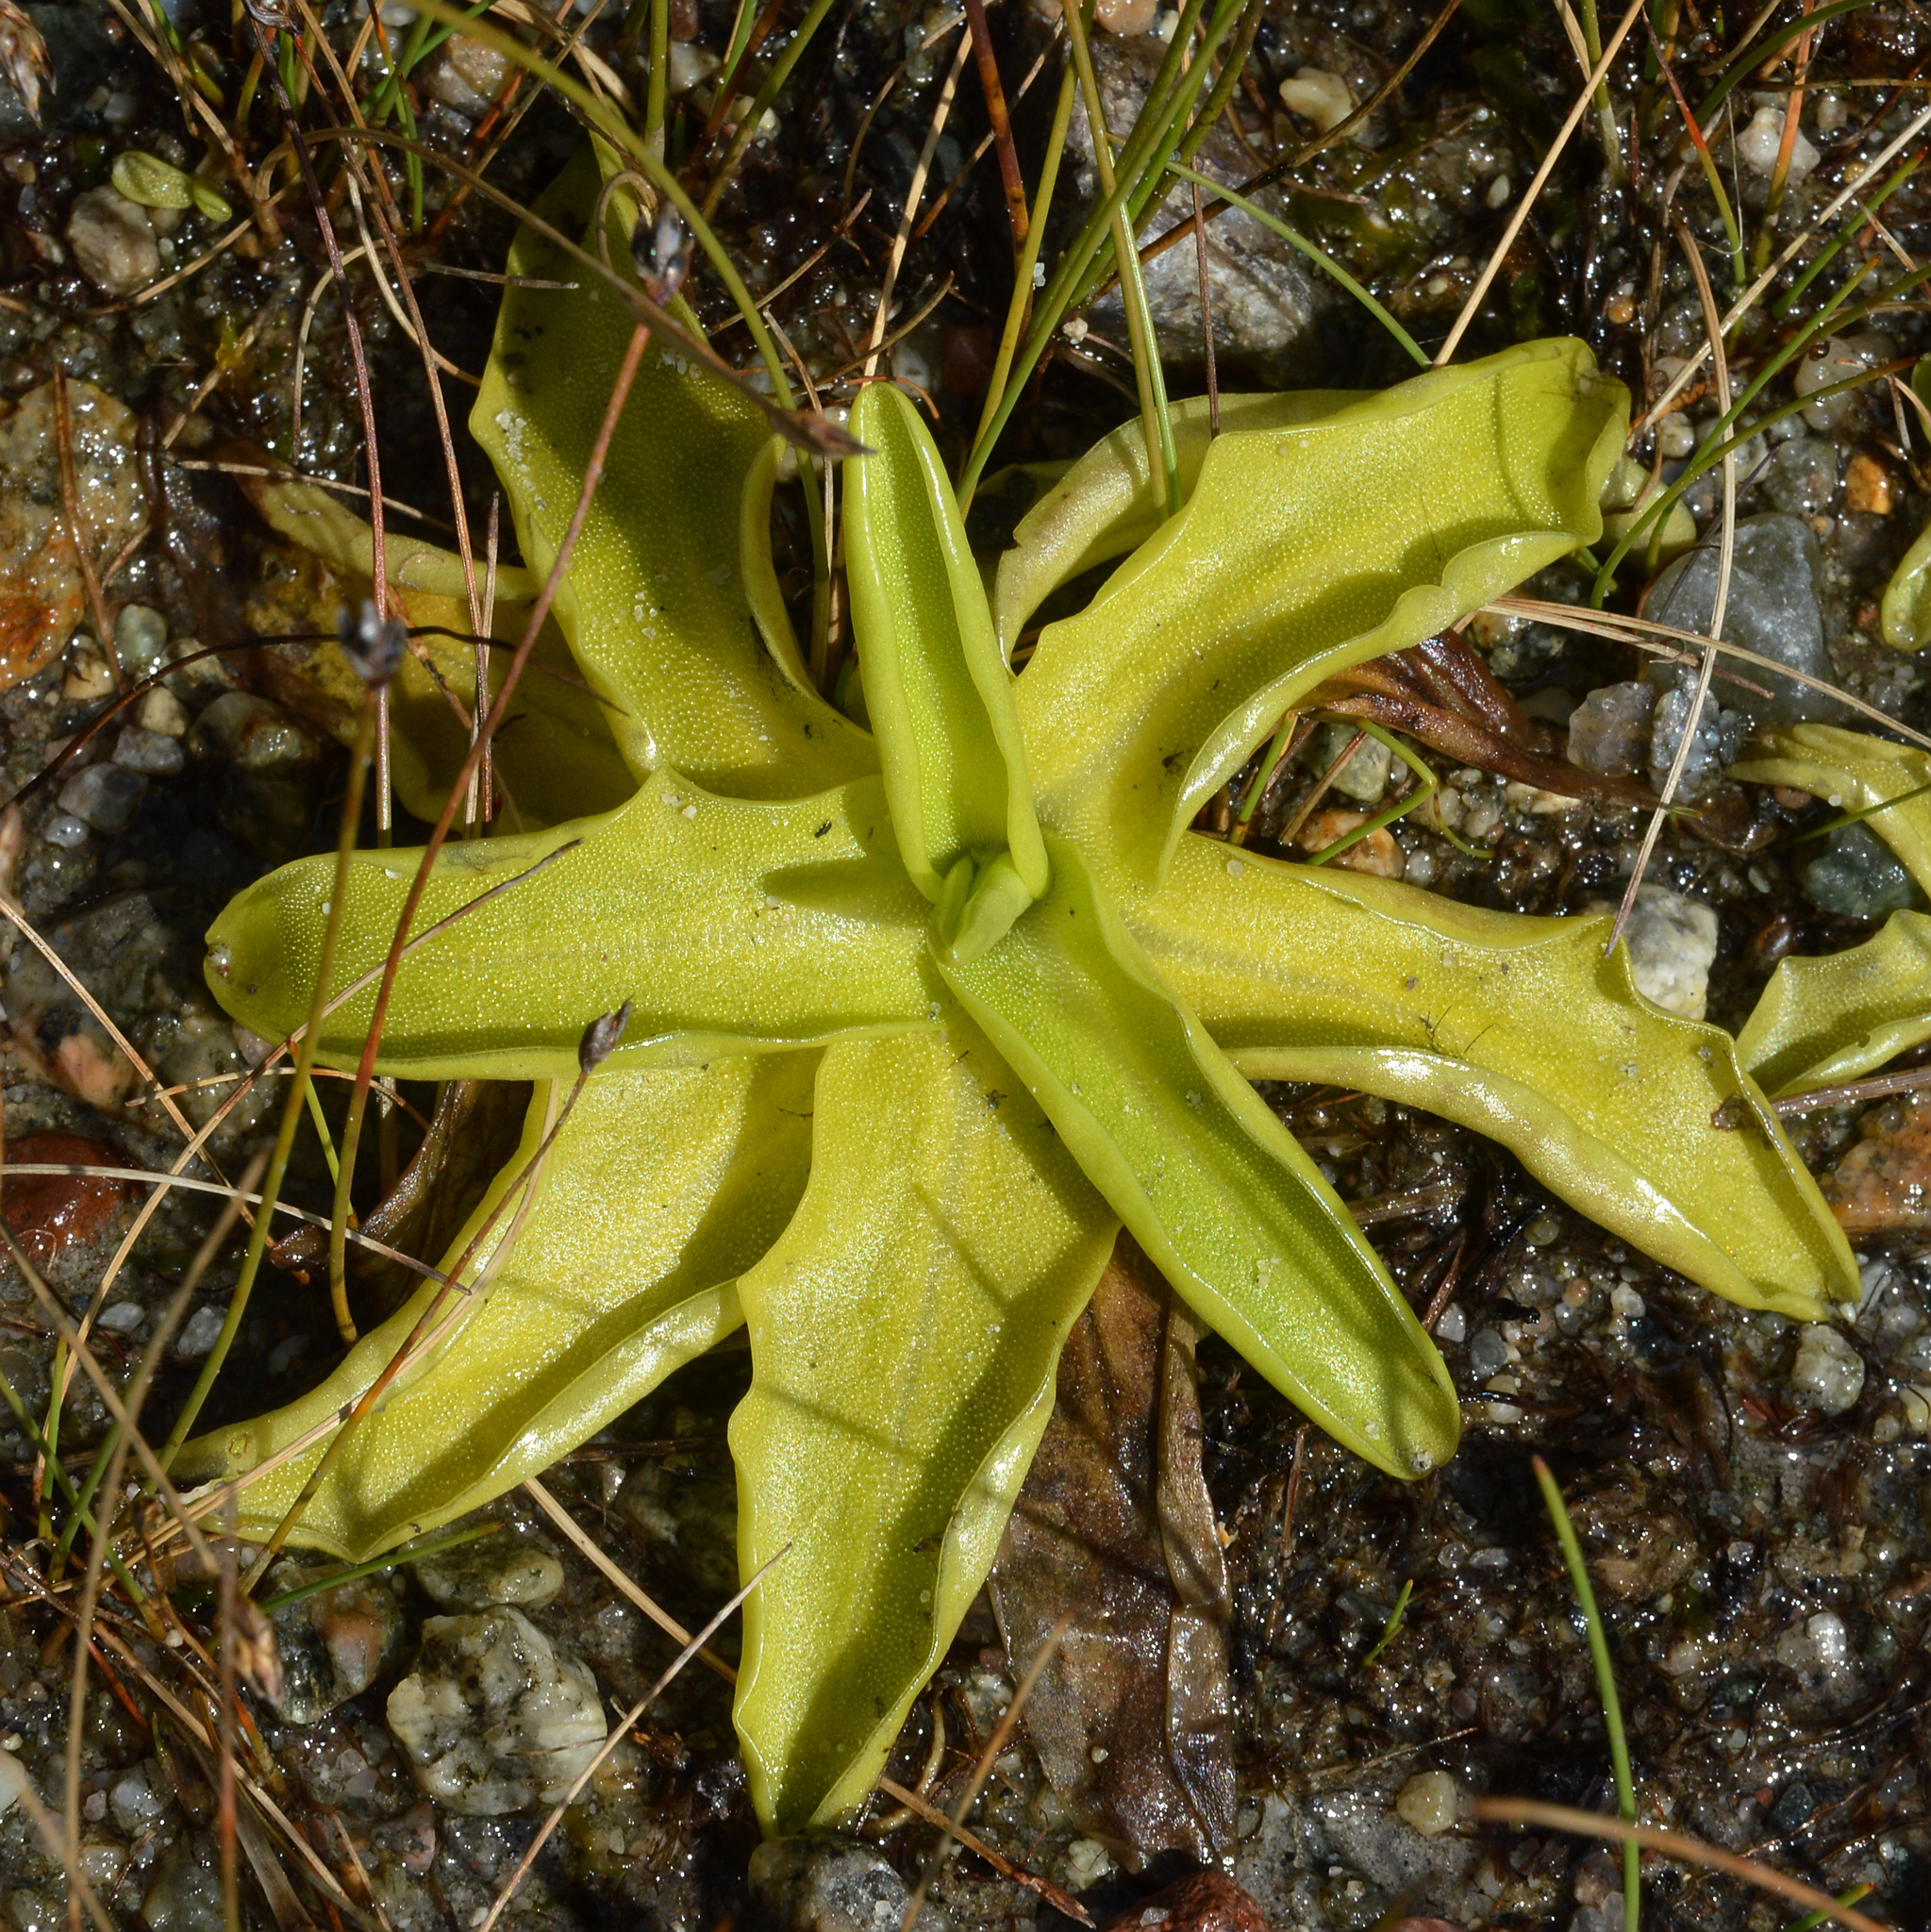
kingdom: Plantae
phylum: Tracheophyta
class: Magnoliopsida
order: Lamiales
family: Lentibulariaceae
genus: Pinguicula
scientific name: Pinguicula vulgaris
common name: Common butterwort
